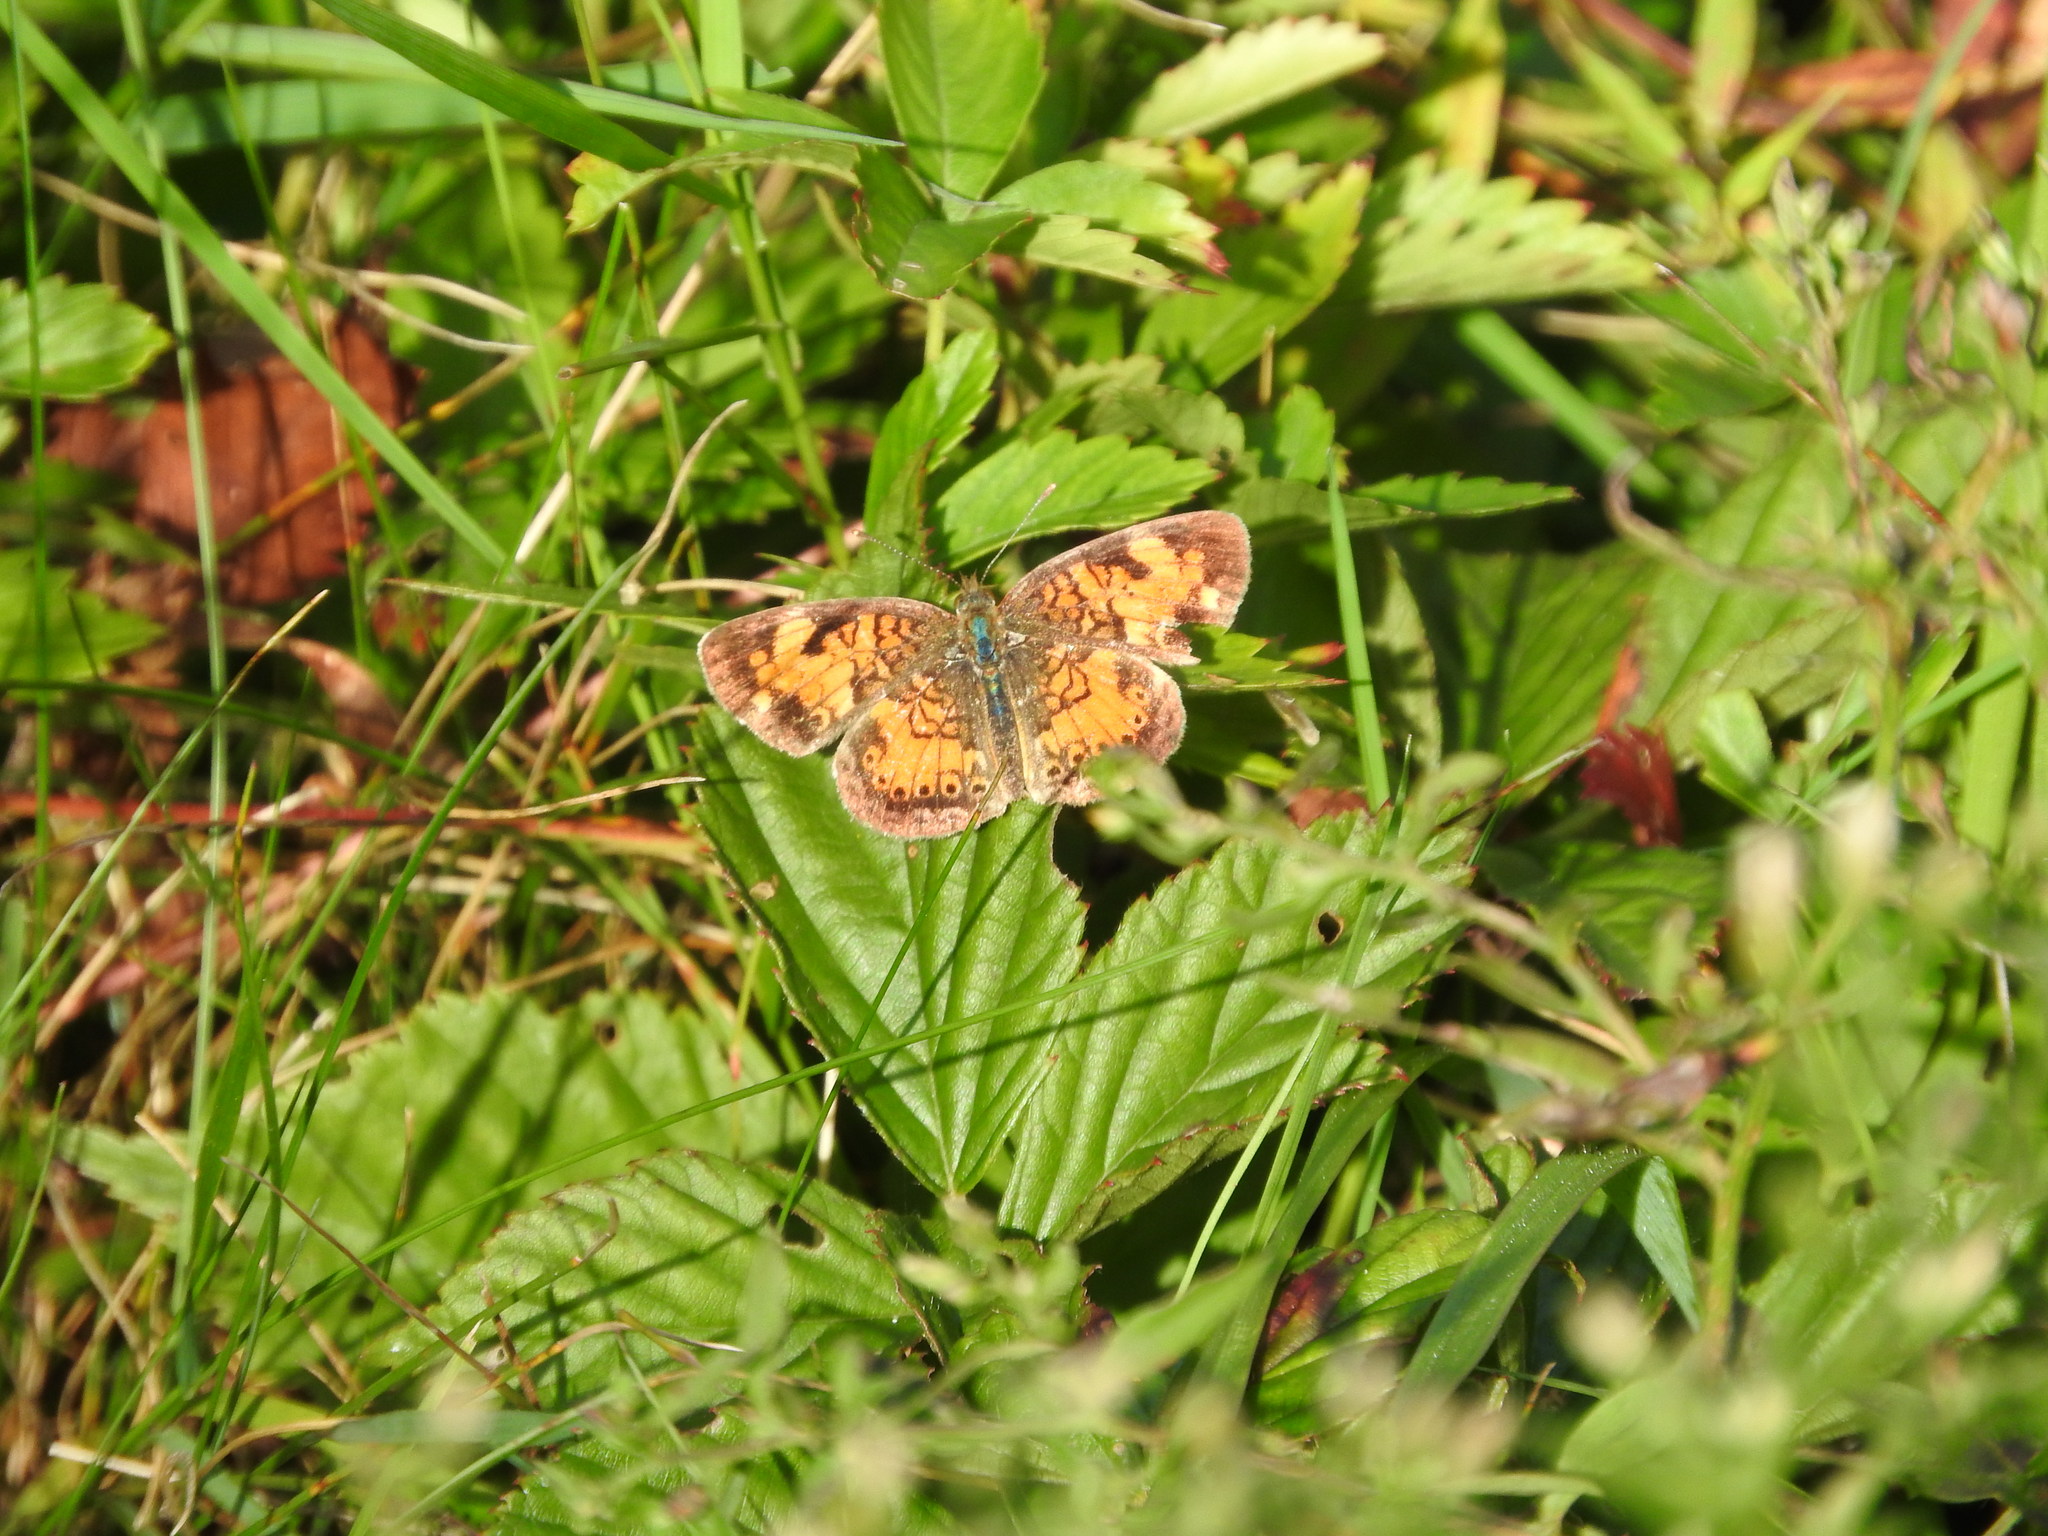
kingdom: Animalia
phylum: Arthropoda
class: Insecta
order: Lepidoptera
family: Nymphalidae
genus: Phyciodes
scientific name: Phyciodes tharos
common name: Pearl crescent
